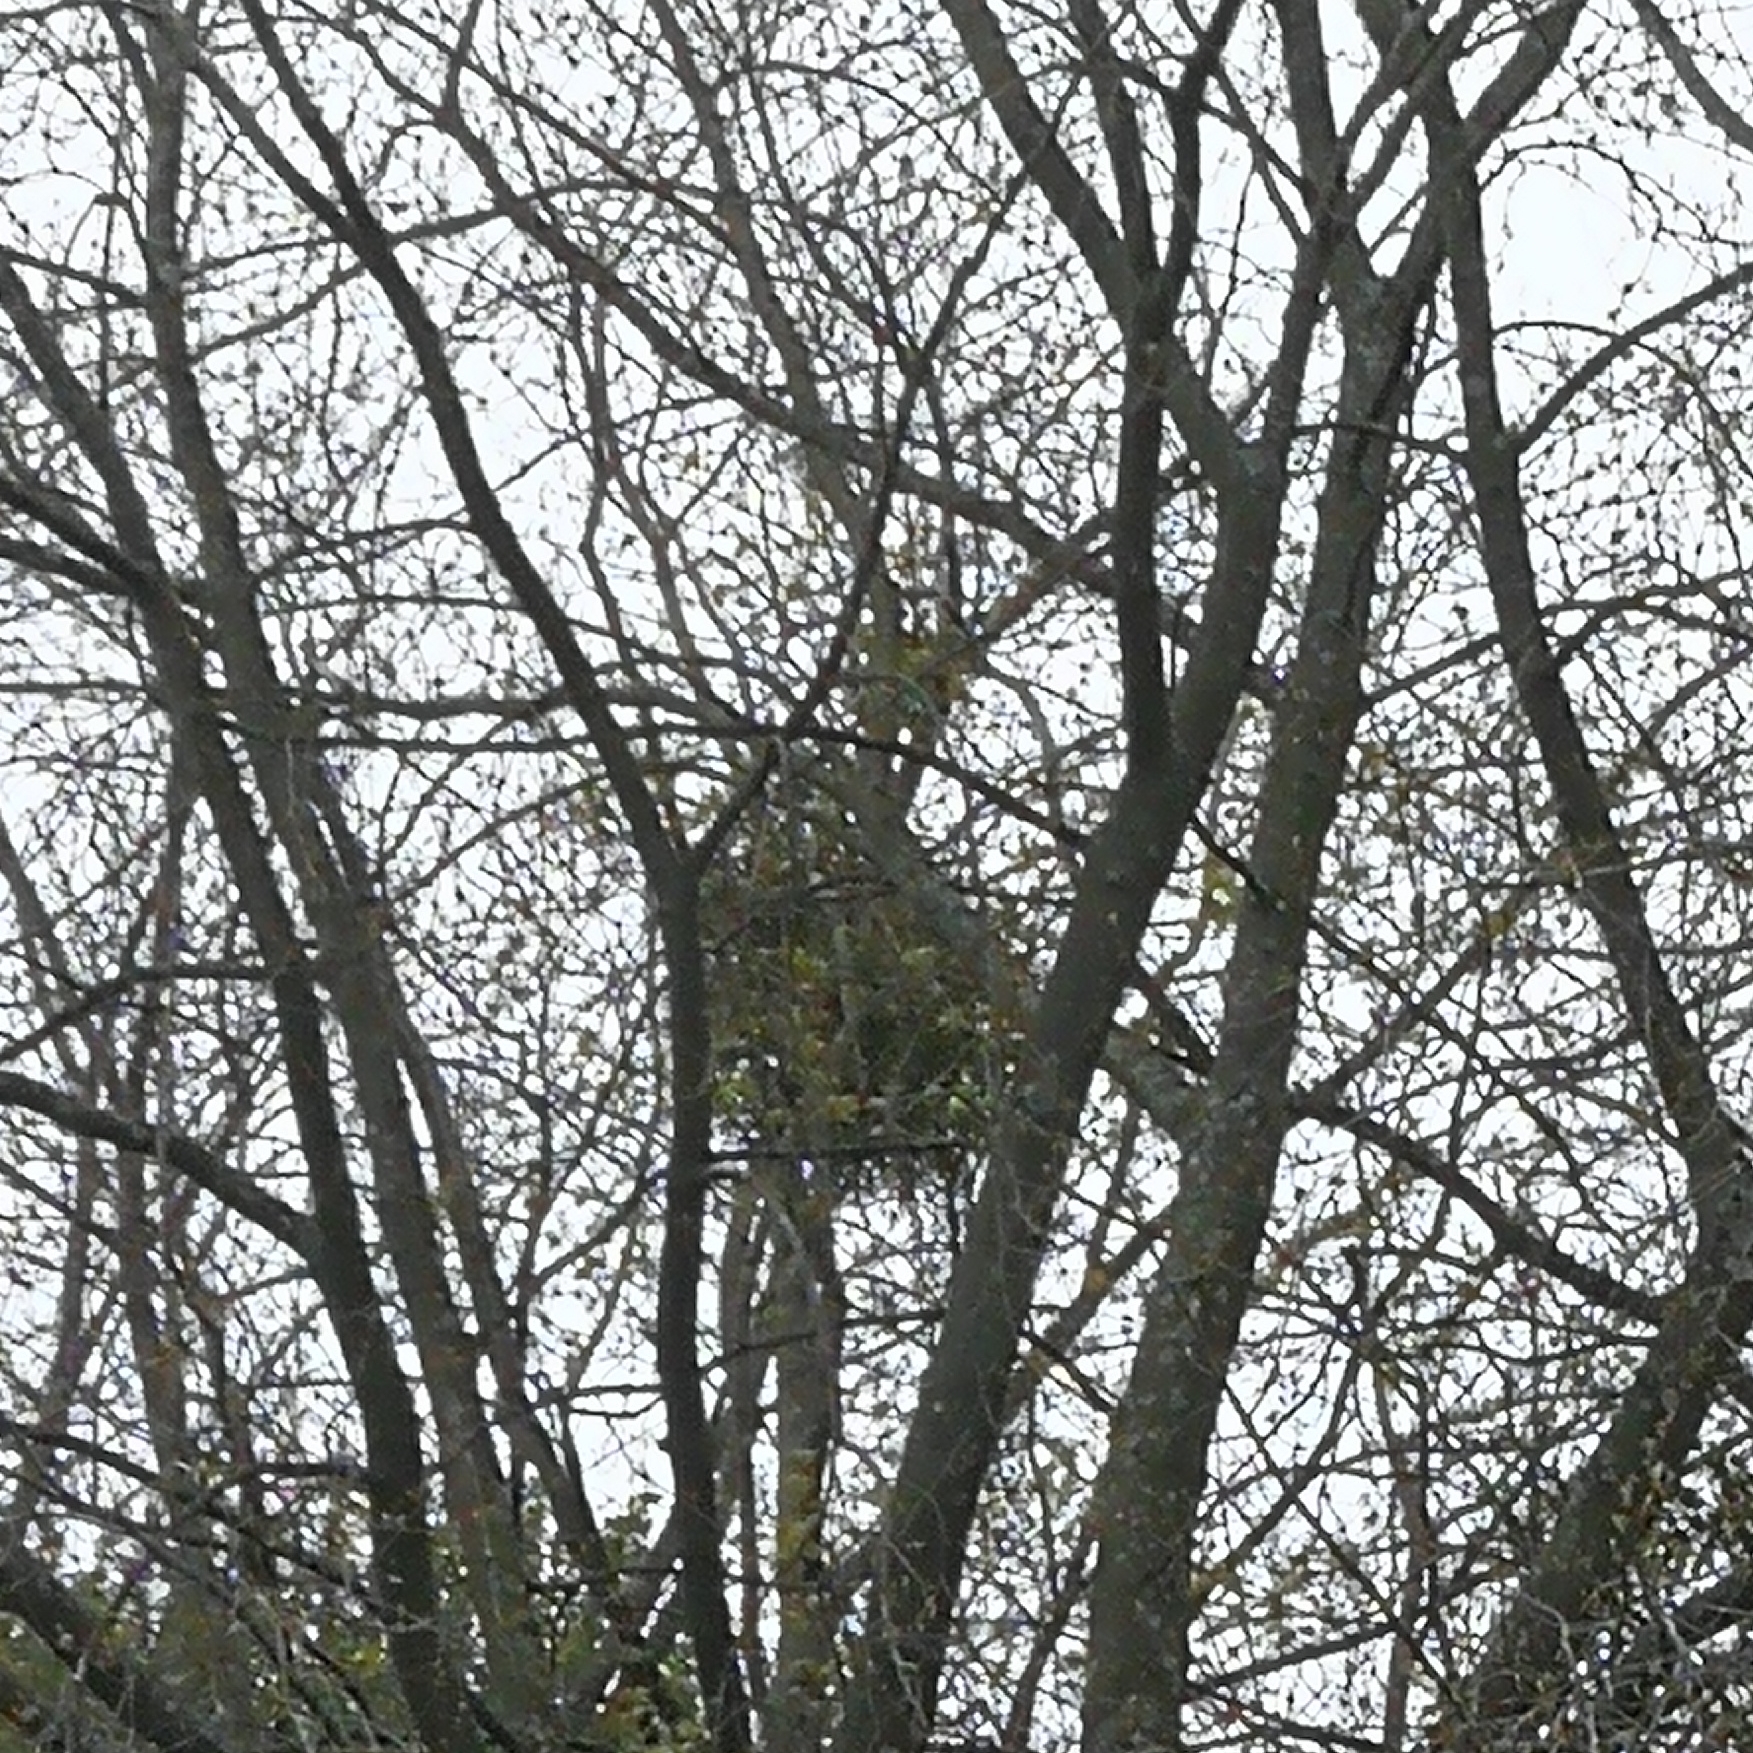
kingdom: Plantae
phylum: Tracheophyta
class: Magnoliopsida
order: Santalales
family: Viscaceae
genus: Viscum
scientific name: Viscum album
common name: Mistletoe
